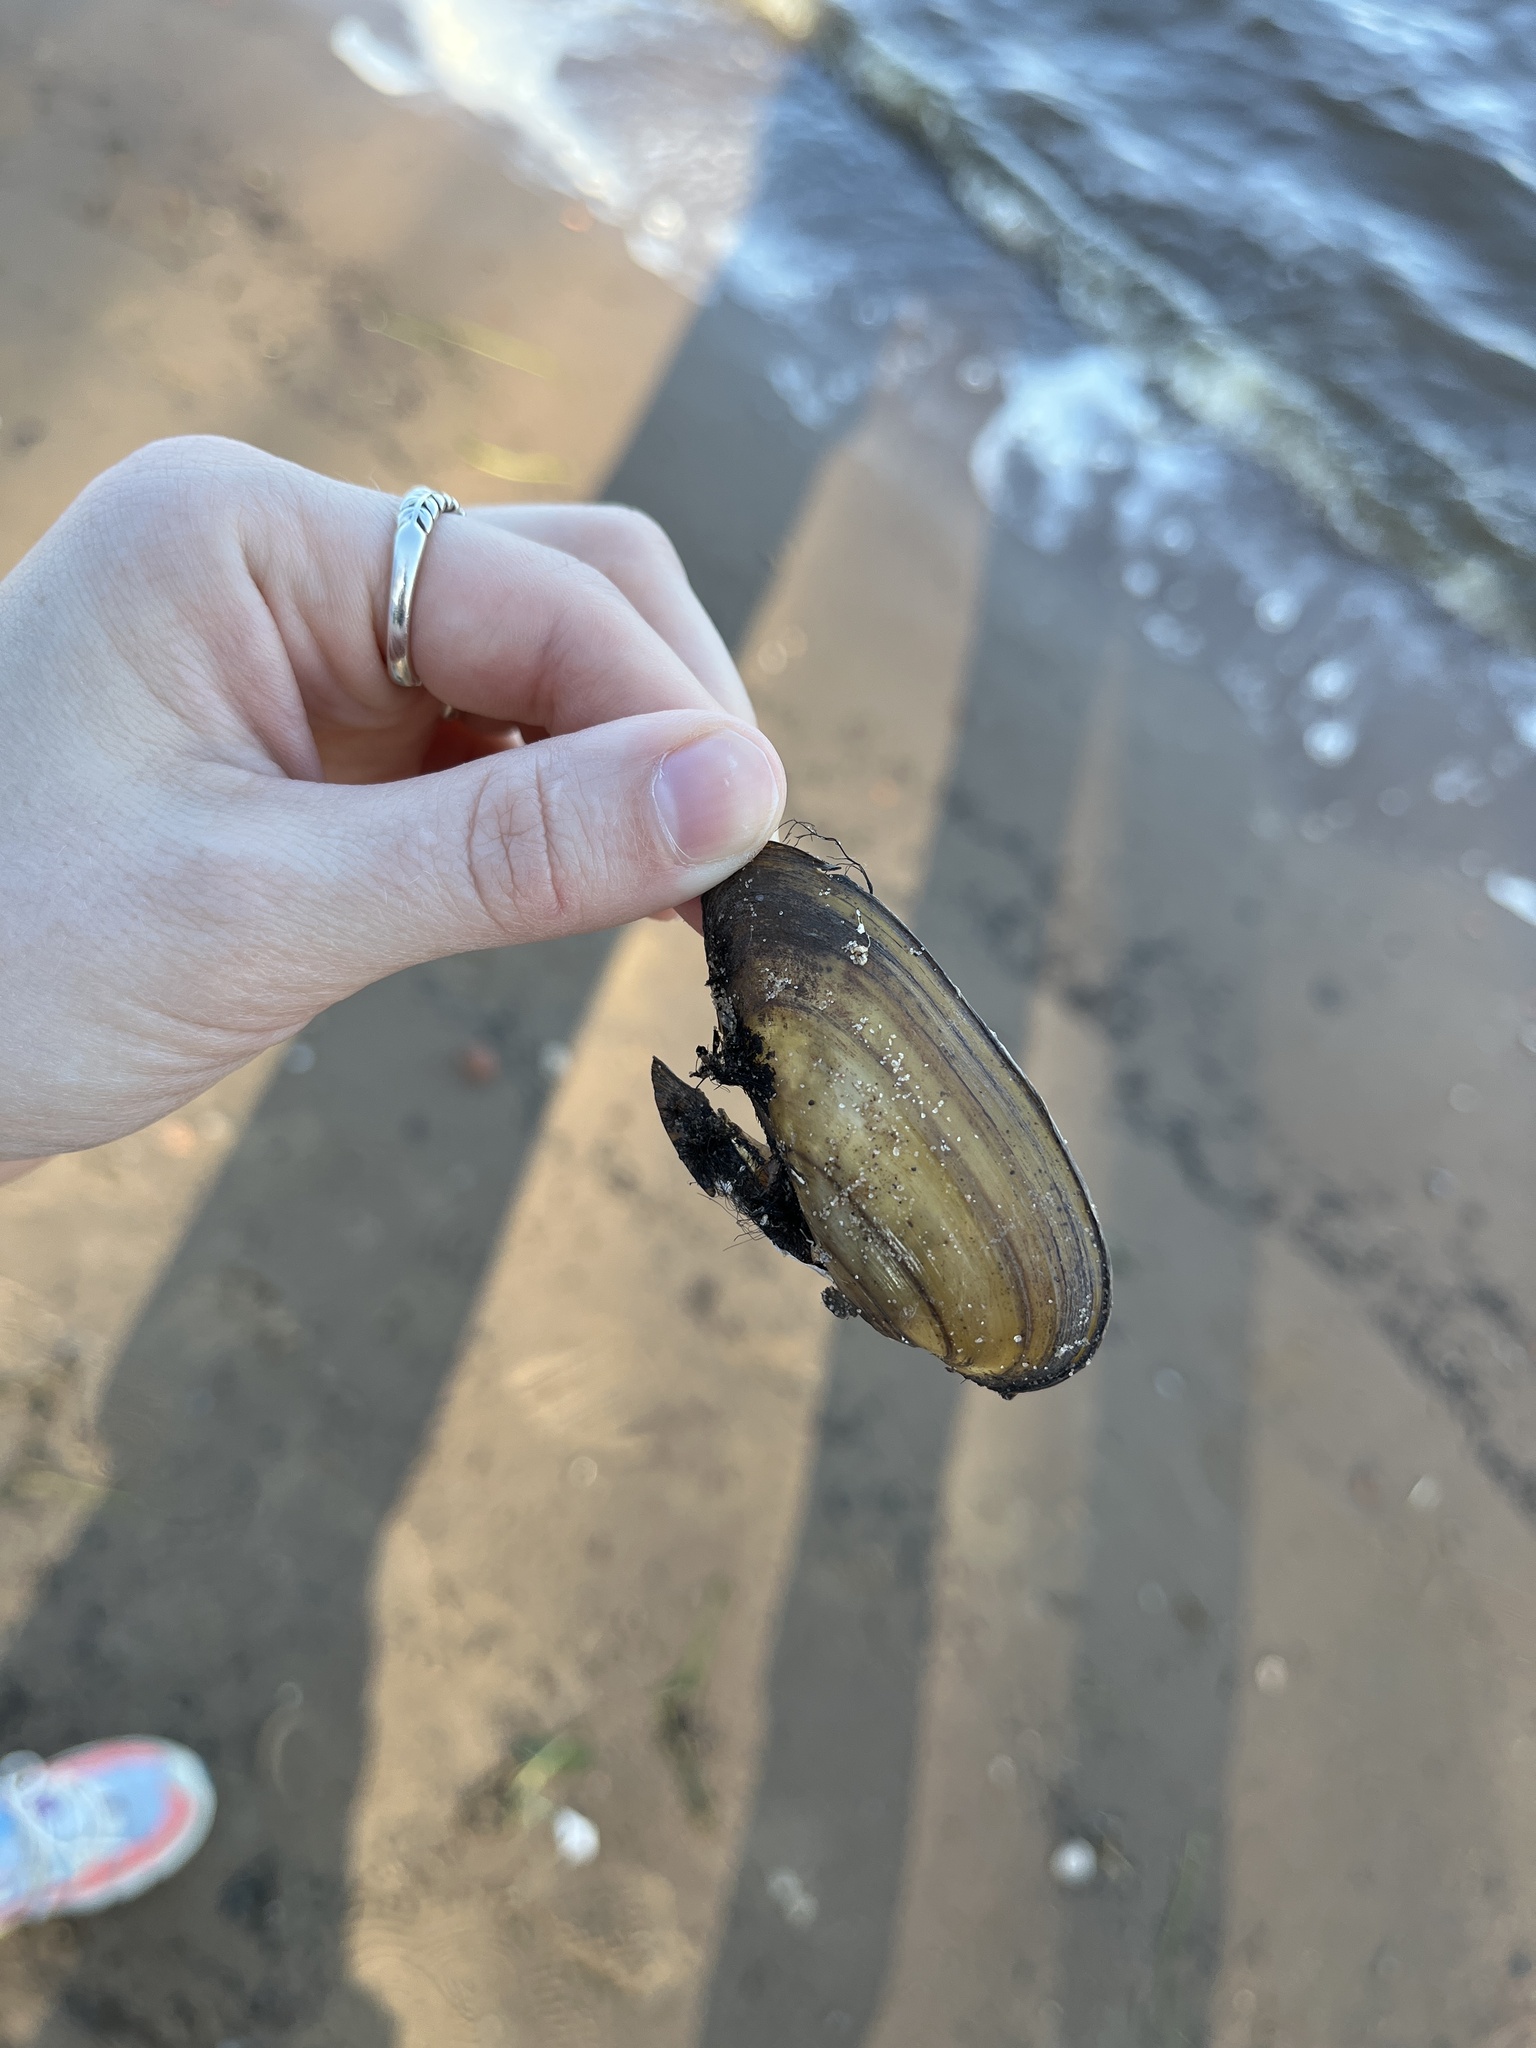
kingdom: Animalia
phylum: Mollusca
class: Bivalvia
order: Unionida
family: Unionidae
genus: Unio
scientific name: Unio pictorum
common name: Painter's mussel
